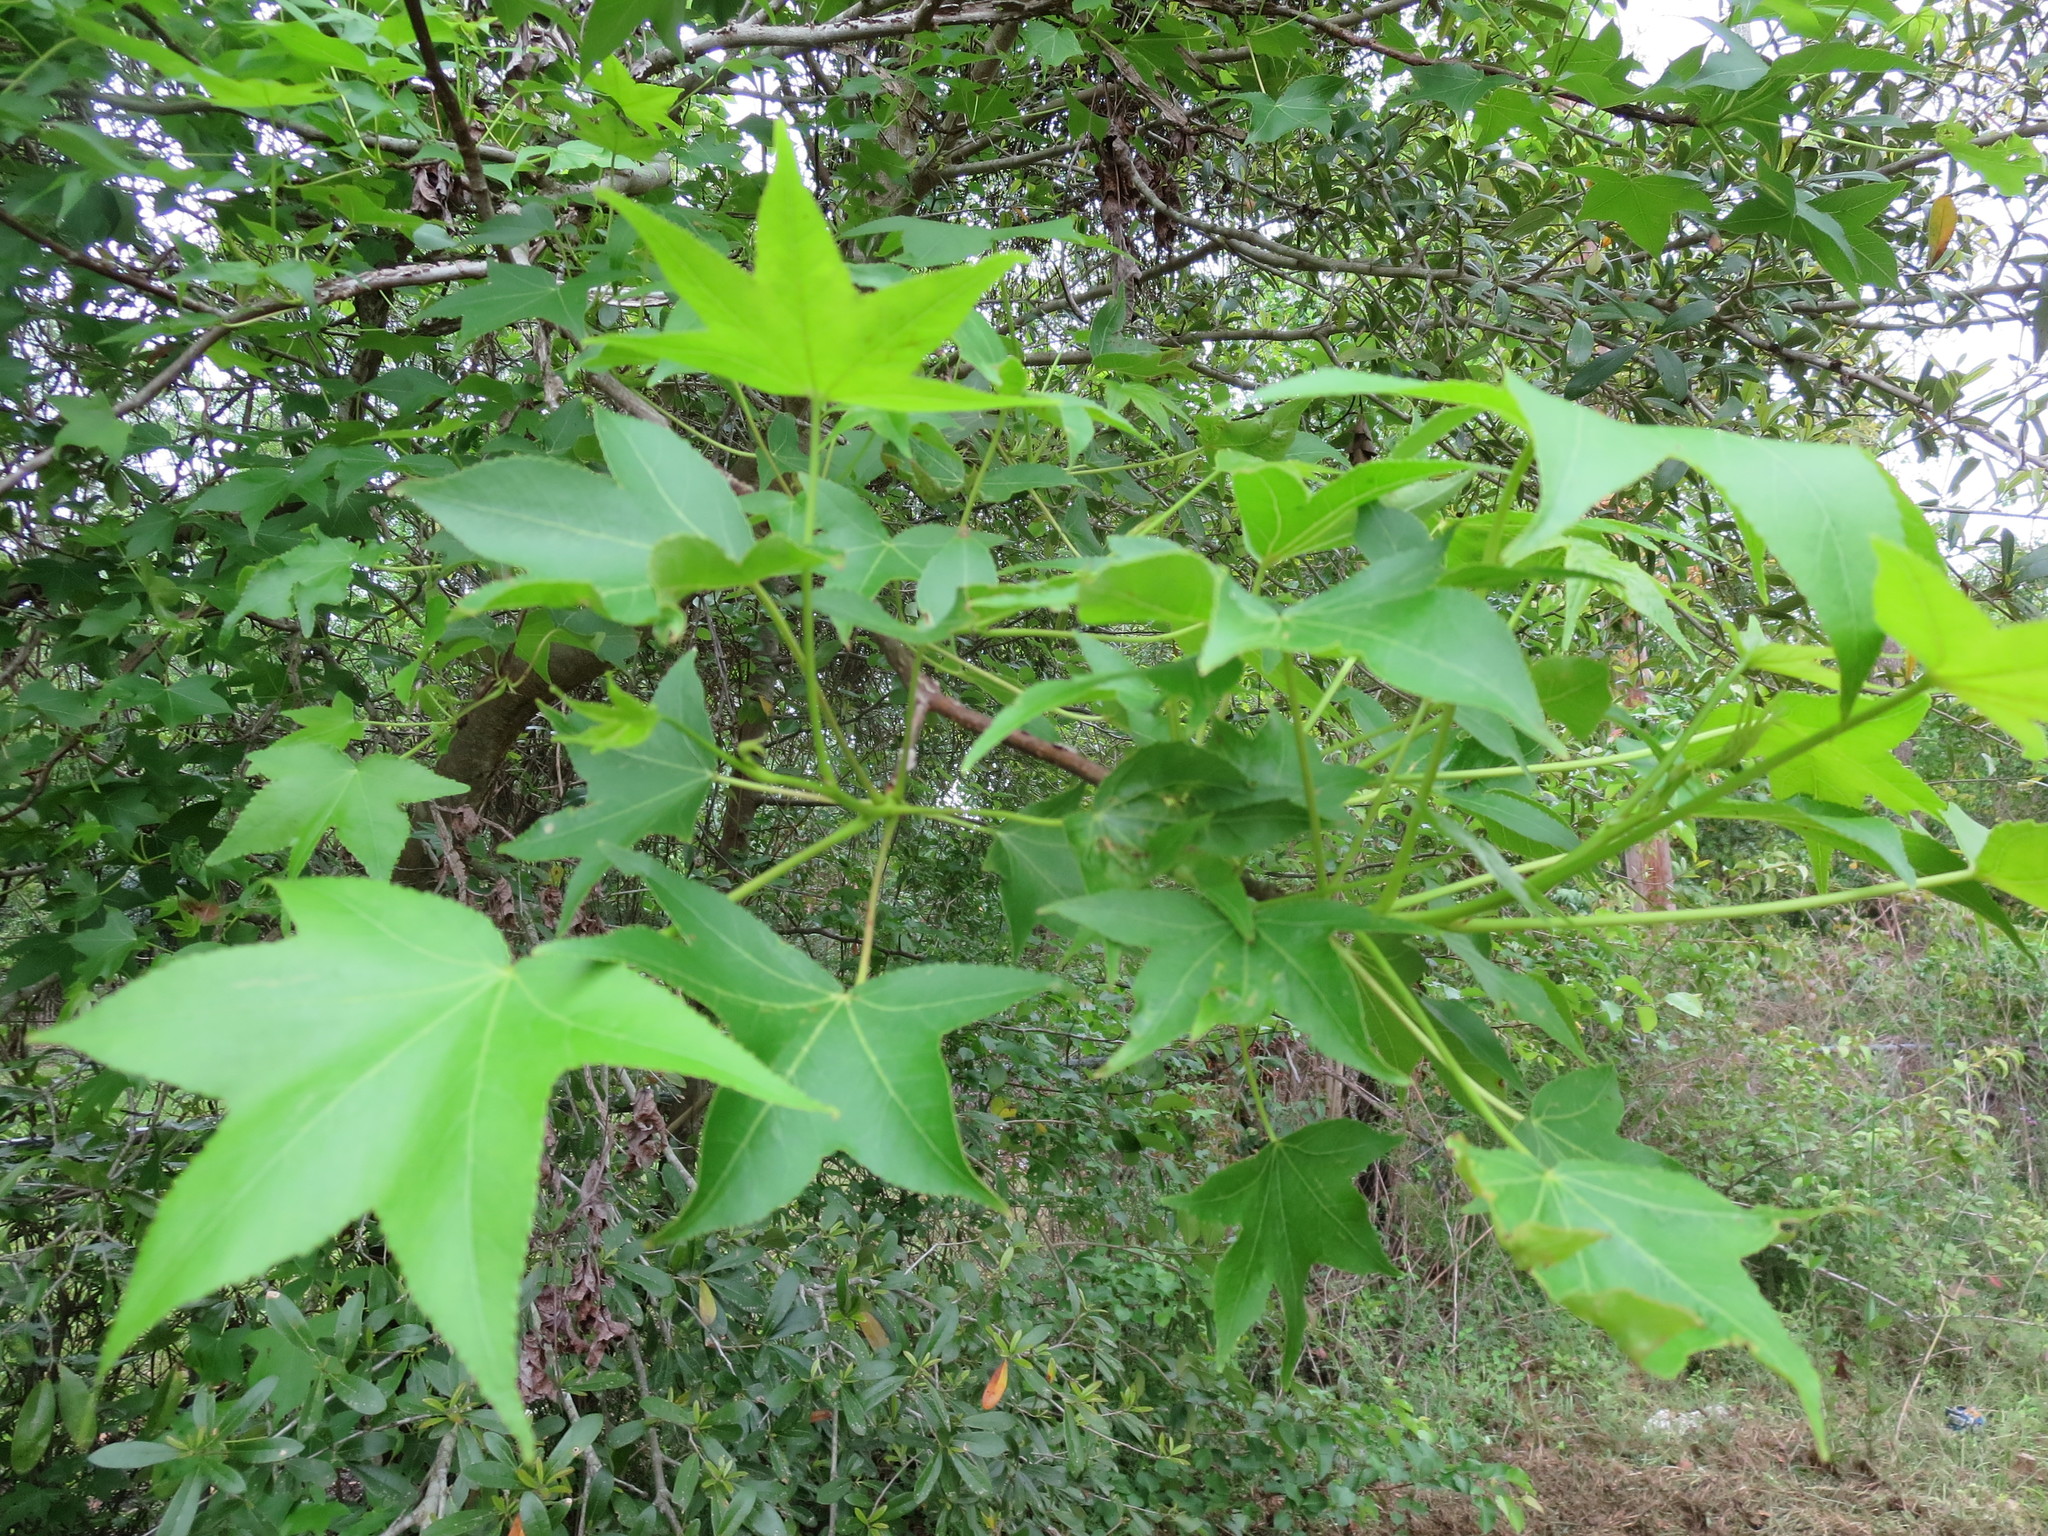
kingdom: Plantae
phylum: Tracheophyta
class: Magnoliopsida
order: Saxifragales
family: Altingiaceae
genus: Liquidambar
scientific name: Liquidambar styraciflua
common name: Sweet gum
